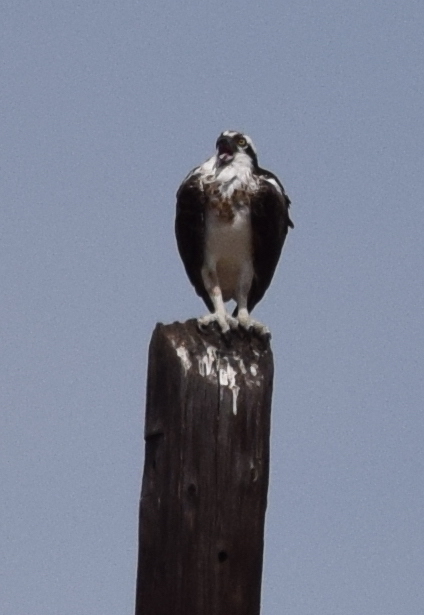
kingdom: Animalia
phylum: Chordata
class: Aves
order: Accipitriformes
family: Pandionidae
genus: Pandion
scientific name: Pandion haliaetus
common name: Osprey
